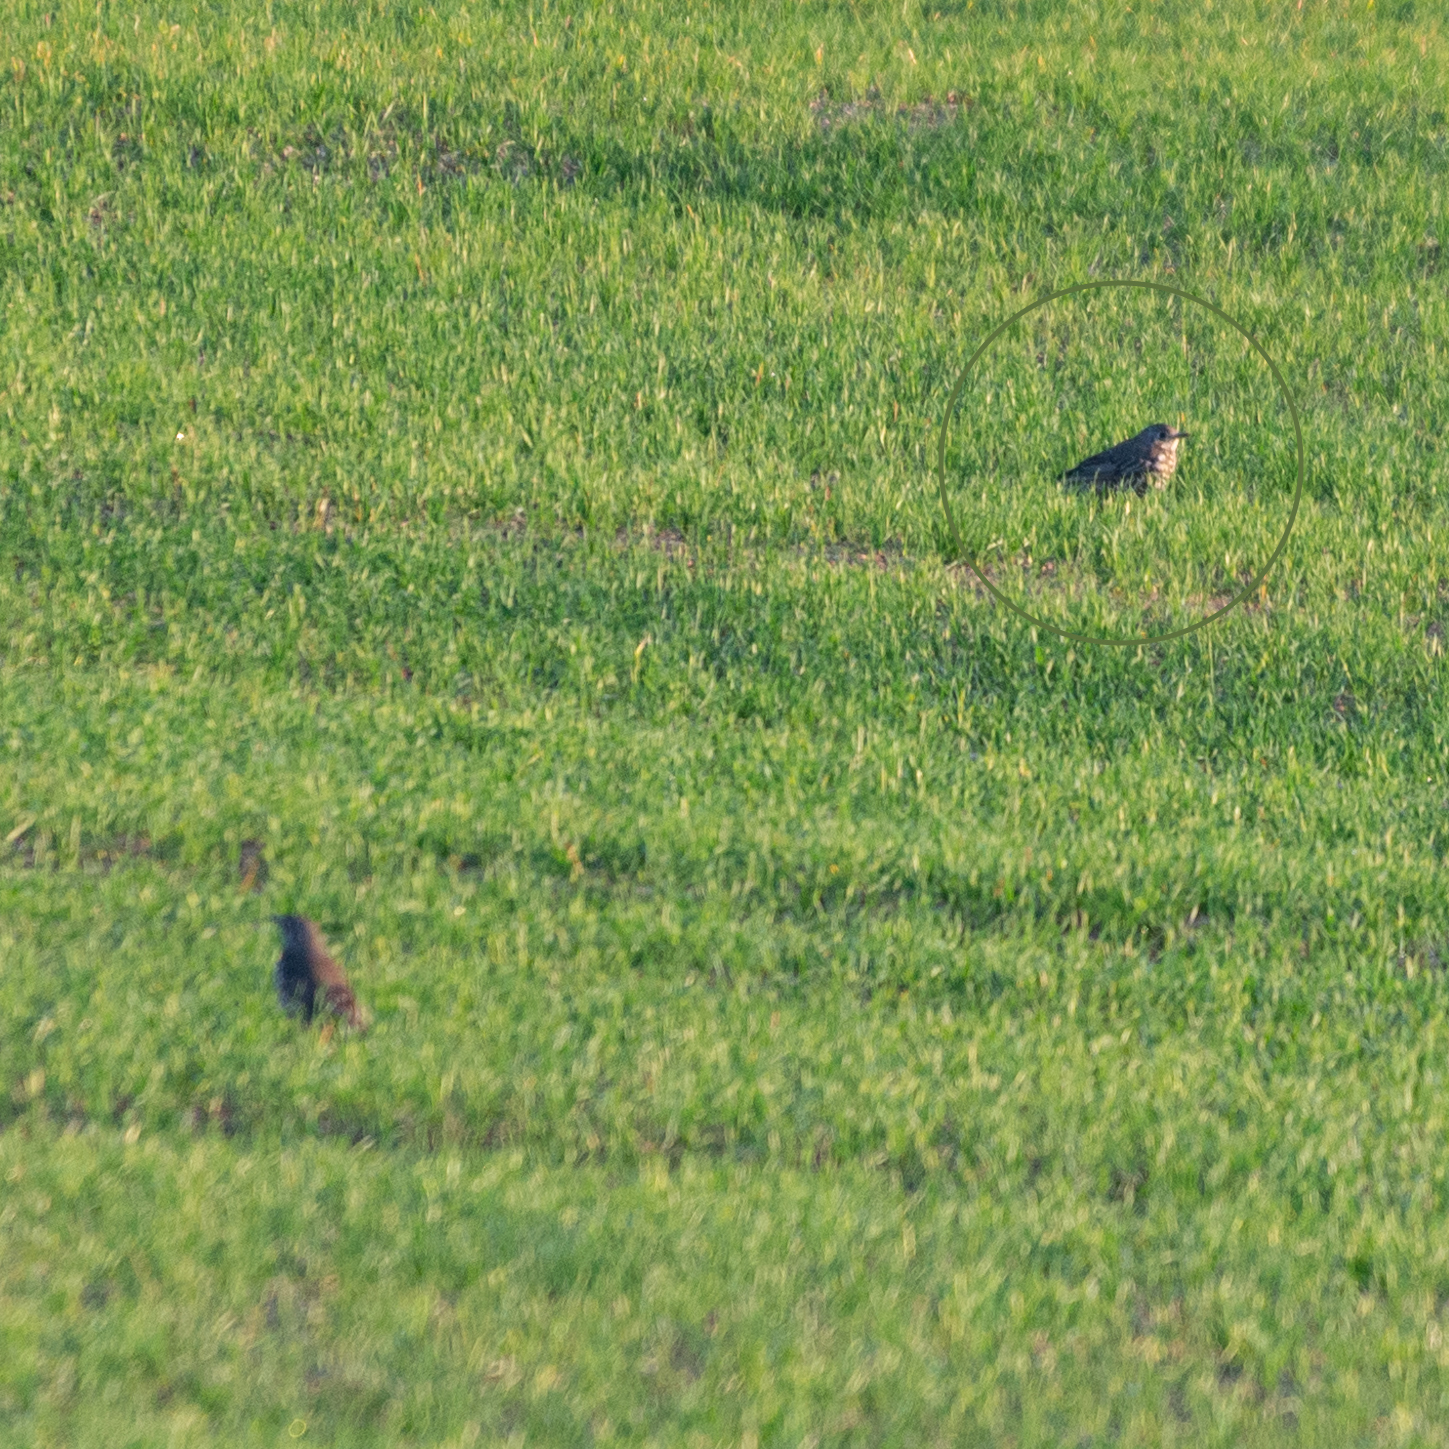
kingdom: Animalia
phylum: Chordata
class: Aves
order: Passeriformes
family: Turdidae
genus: Turdus
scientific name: Turdus viscivorus
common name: Mistle thrush
